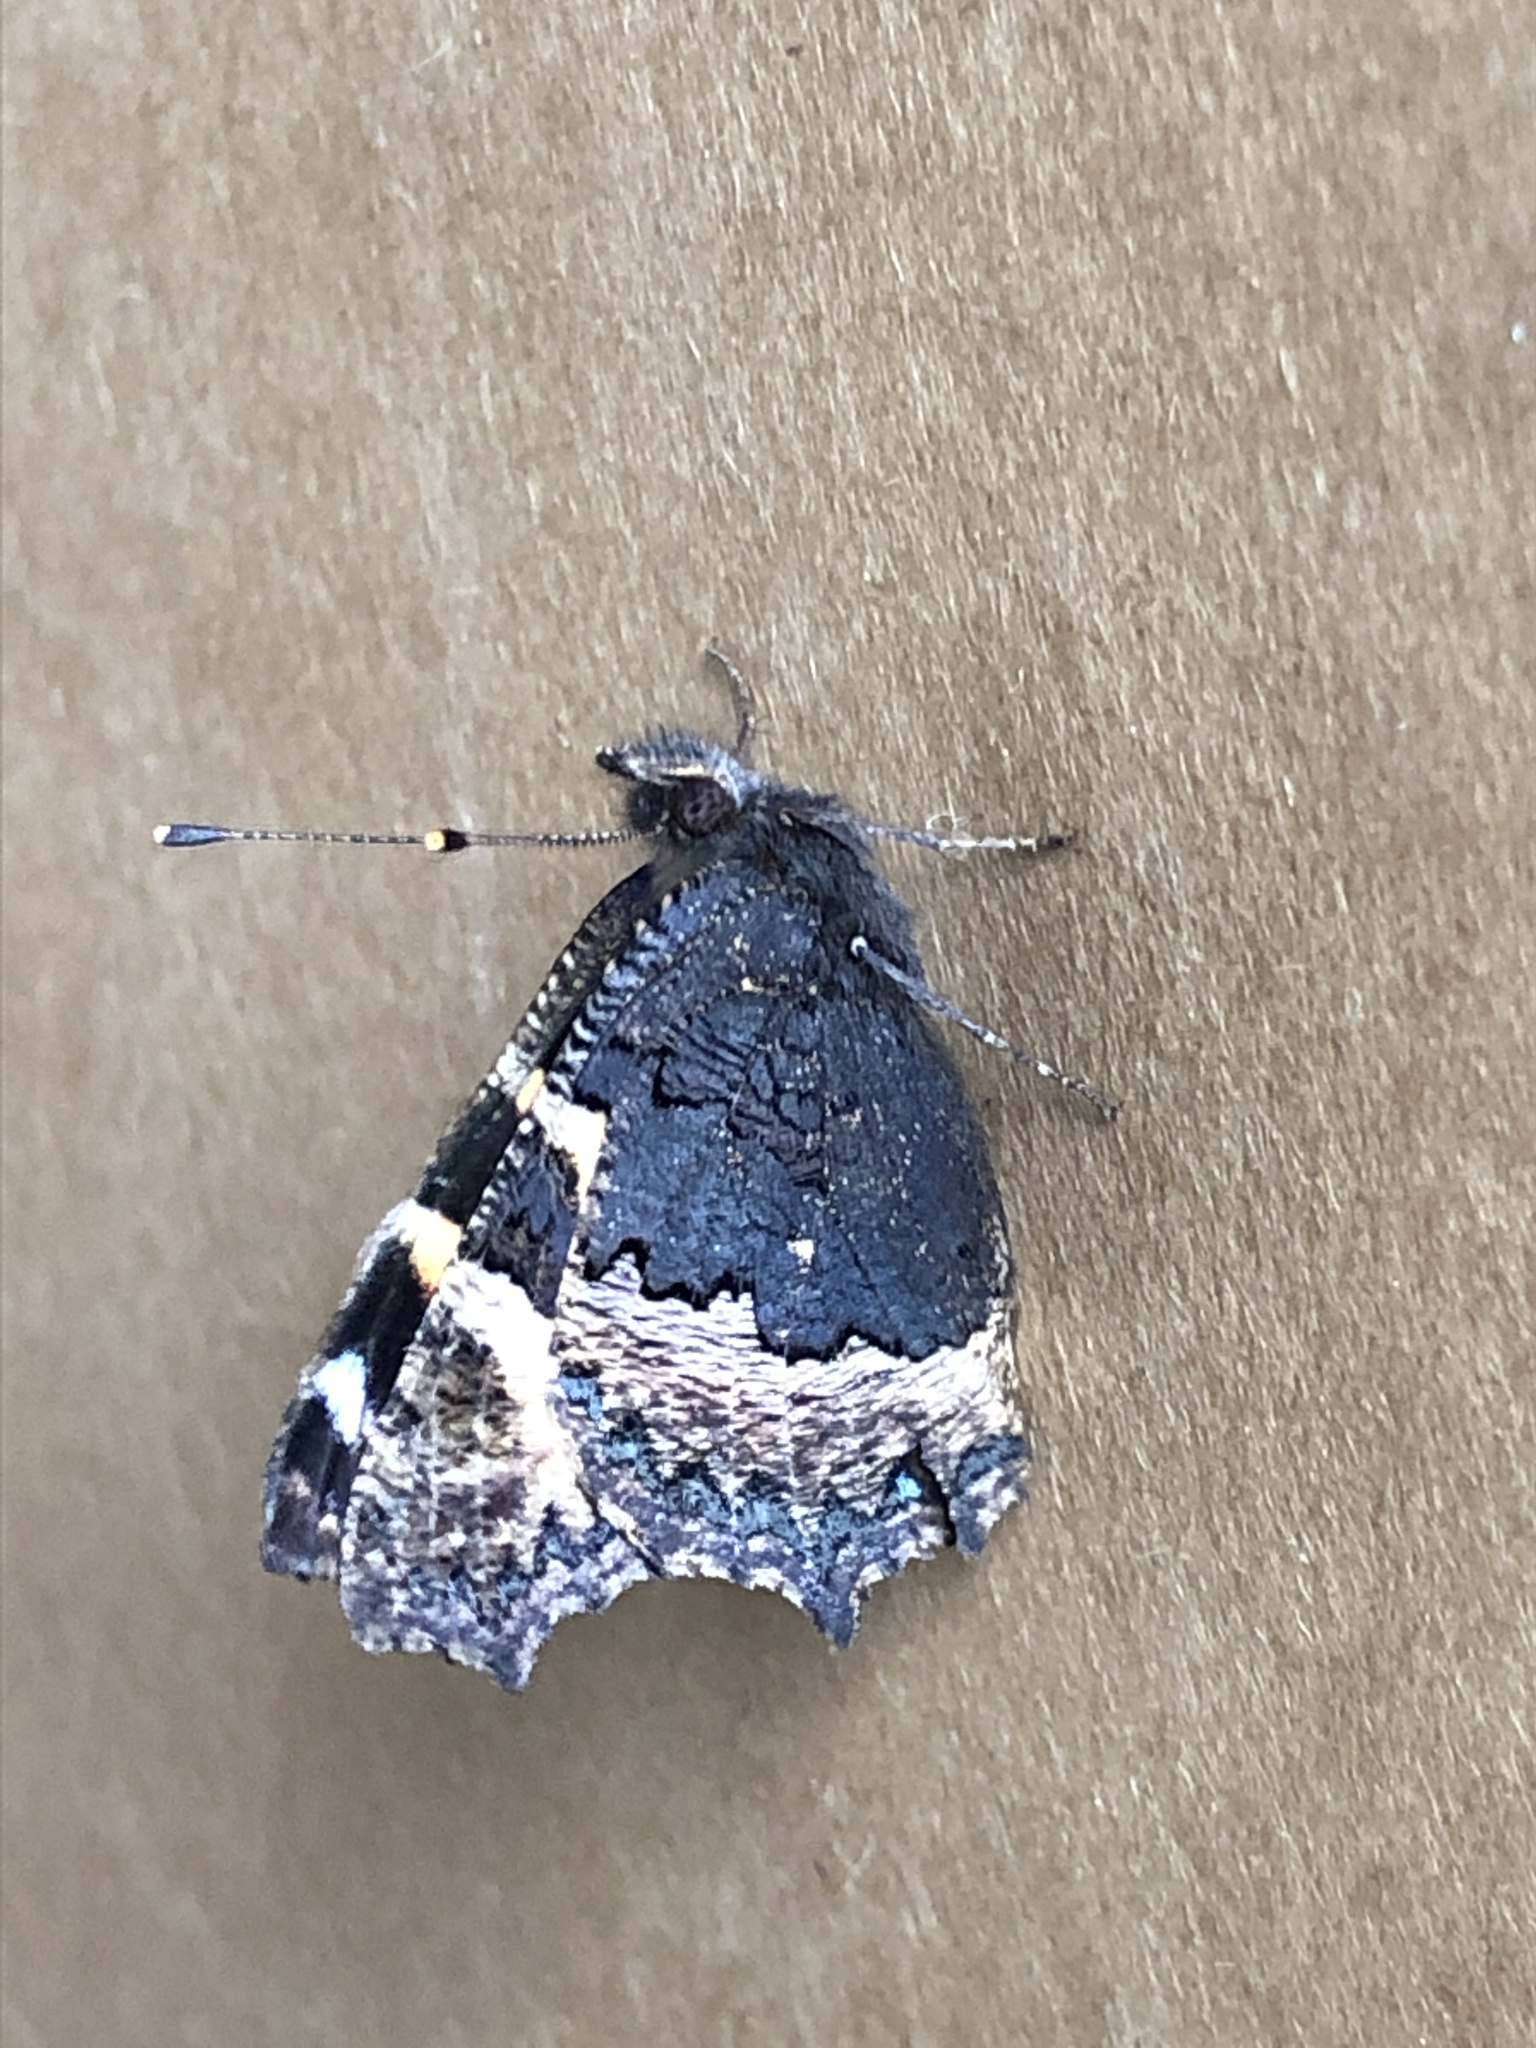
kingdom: Animalia
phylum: Arthropoda
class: Insecta
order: Lepidoptera
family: Nymphalidae
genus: Aglais
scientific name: Aglais urticae
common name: Small tortoiseshell
